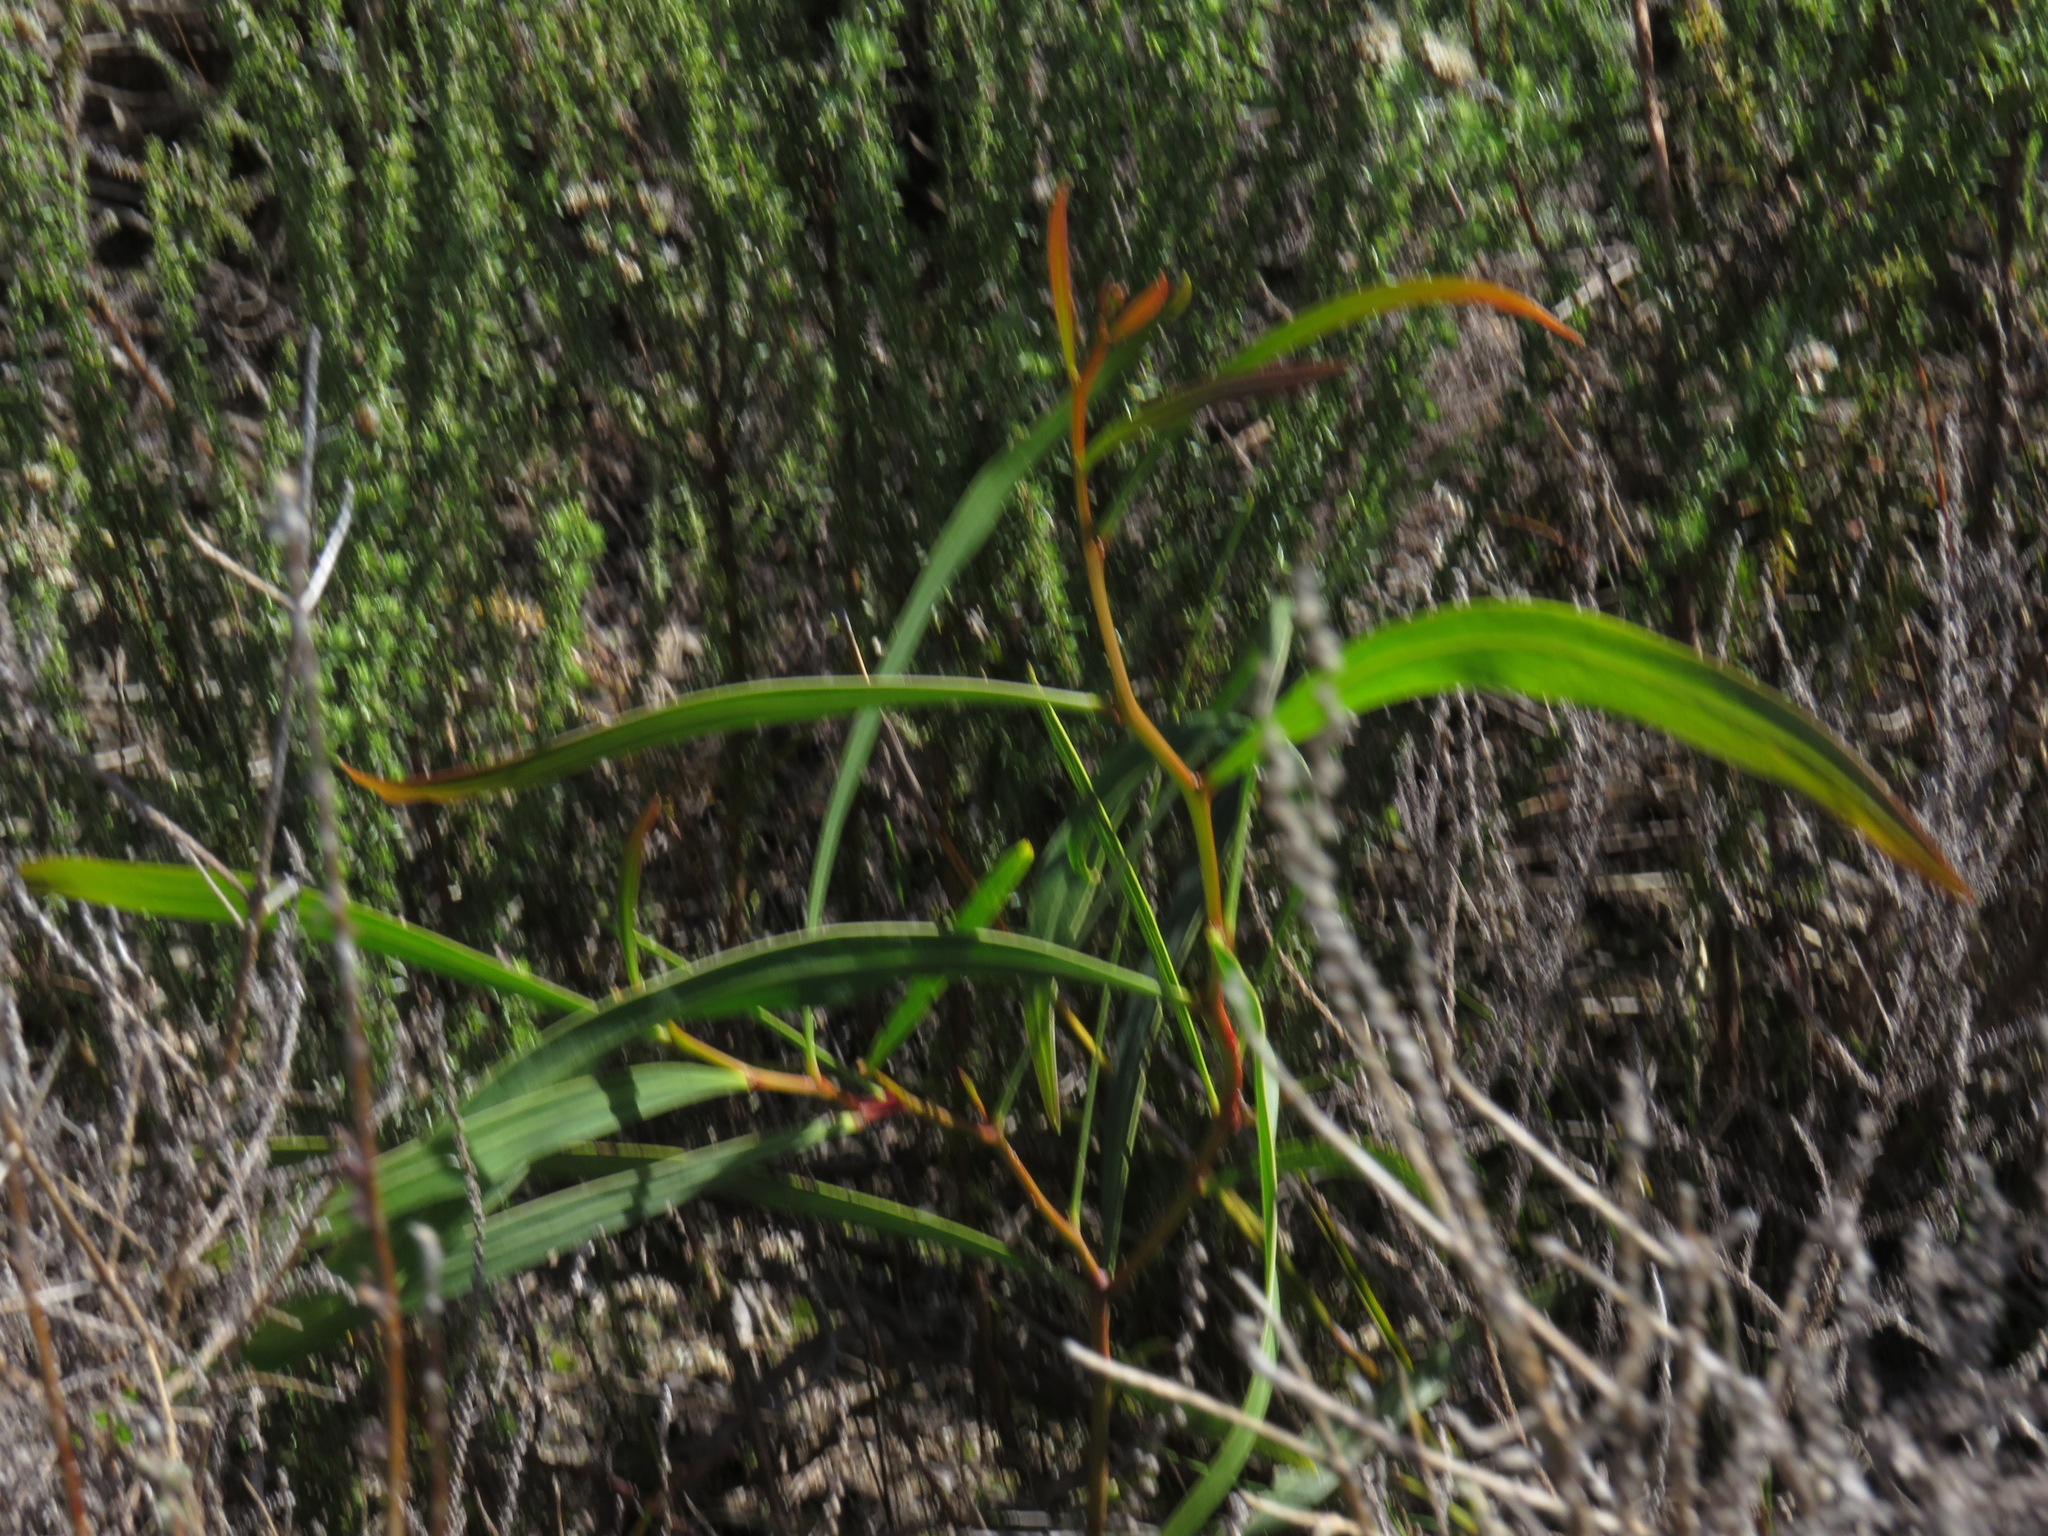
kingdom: Plantae
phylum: Tracheophyta
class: Magnoliopsida
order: Fabales
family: Fabaceae
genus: Acacia
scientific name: Acacia saligna
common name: Orange wattle
